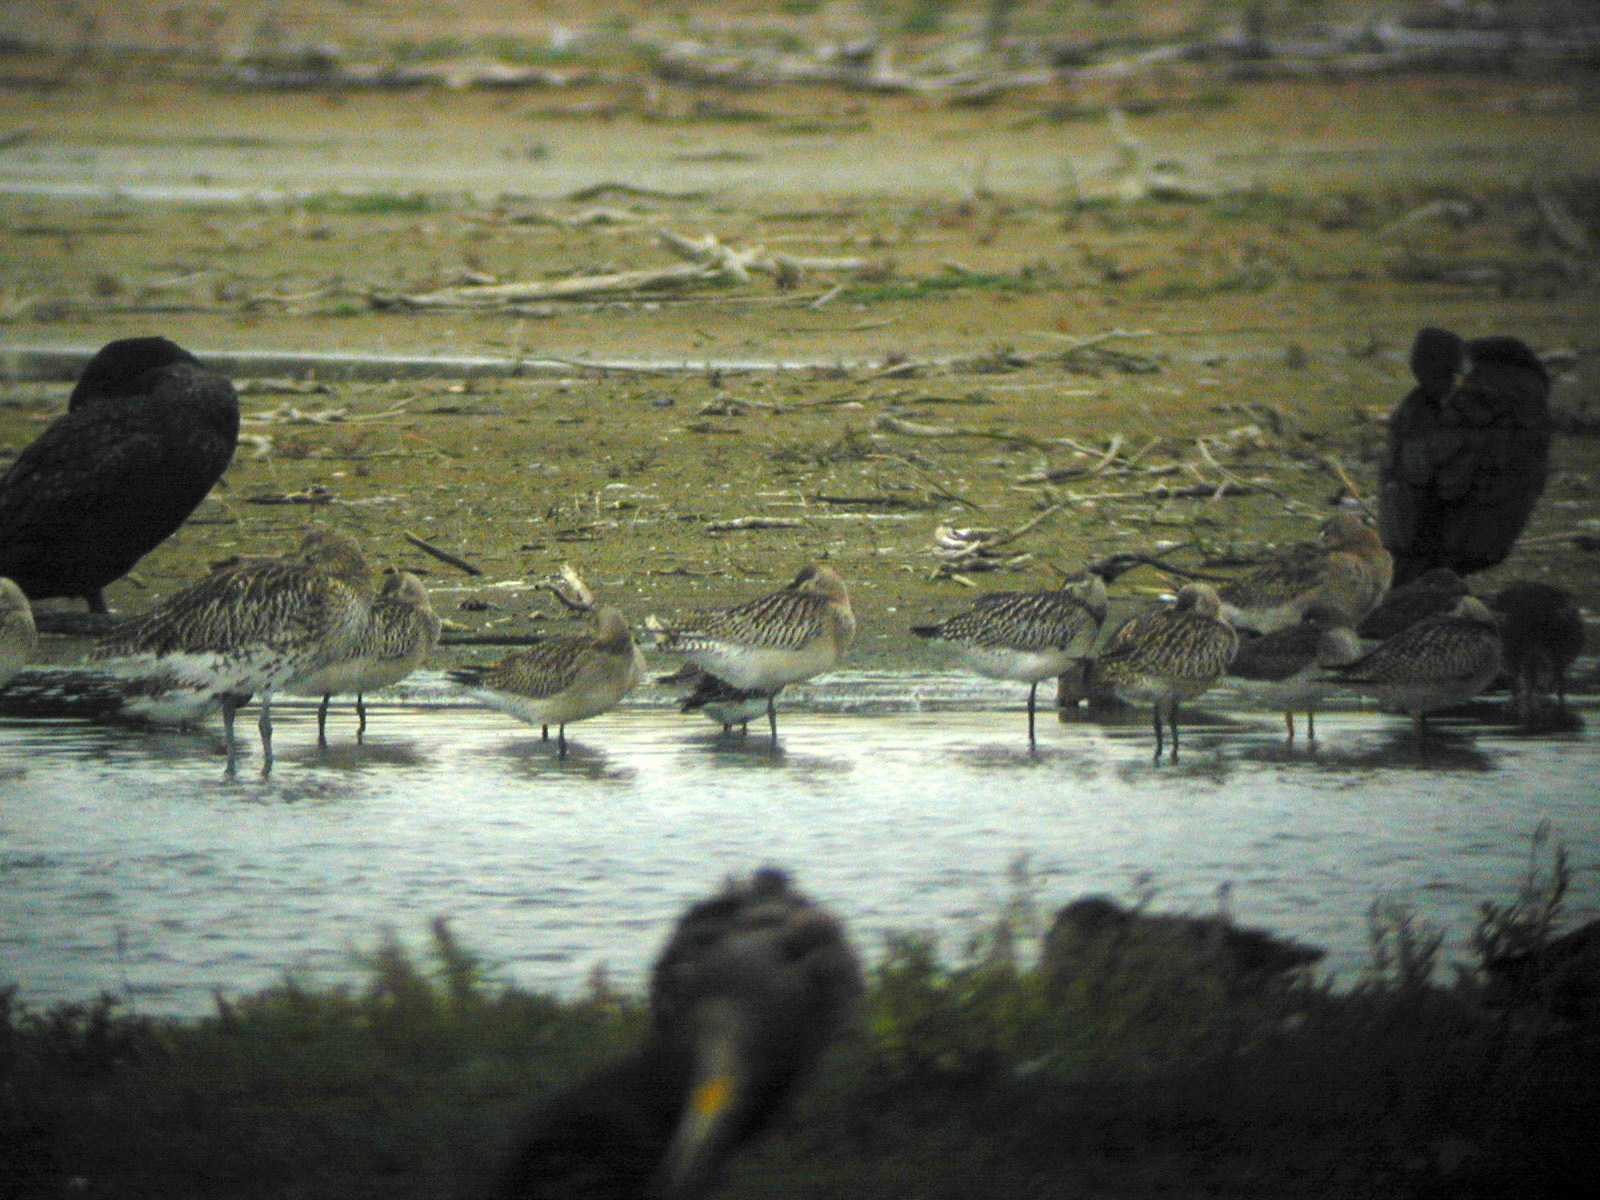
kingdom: Animalia
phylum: Chordata
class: Aves
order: Charadriiformes
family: Scolopacidae
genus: Limosa
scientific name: Limosa lapponica
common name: Bar-tailed godwit
